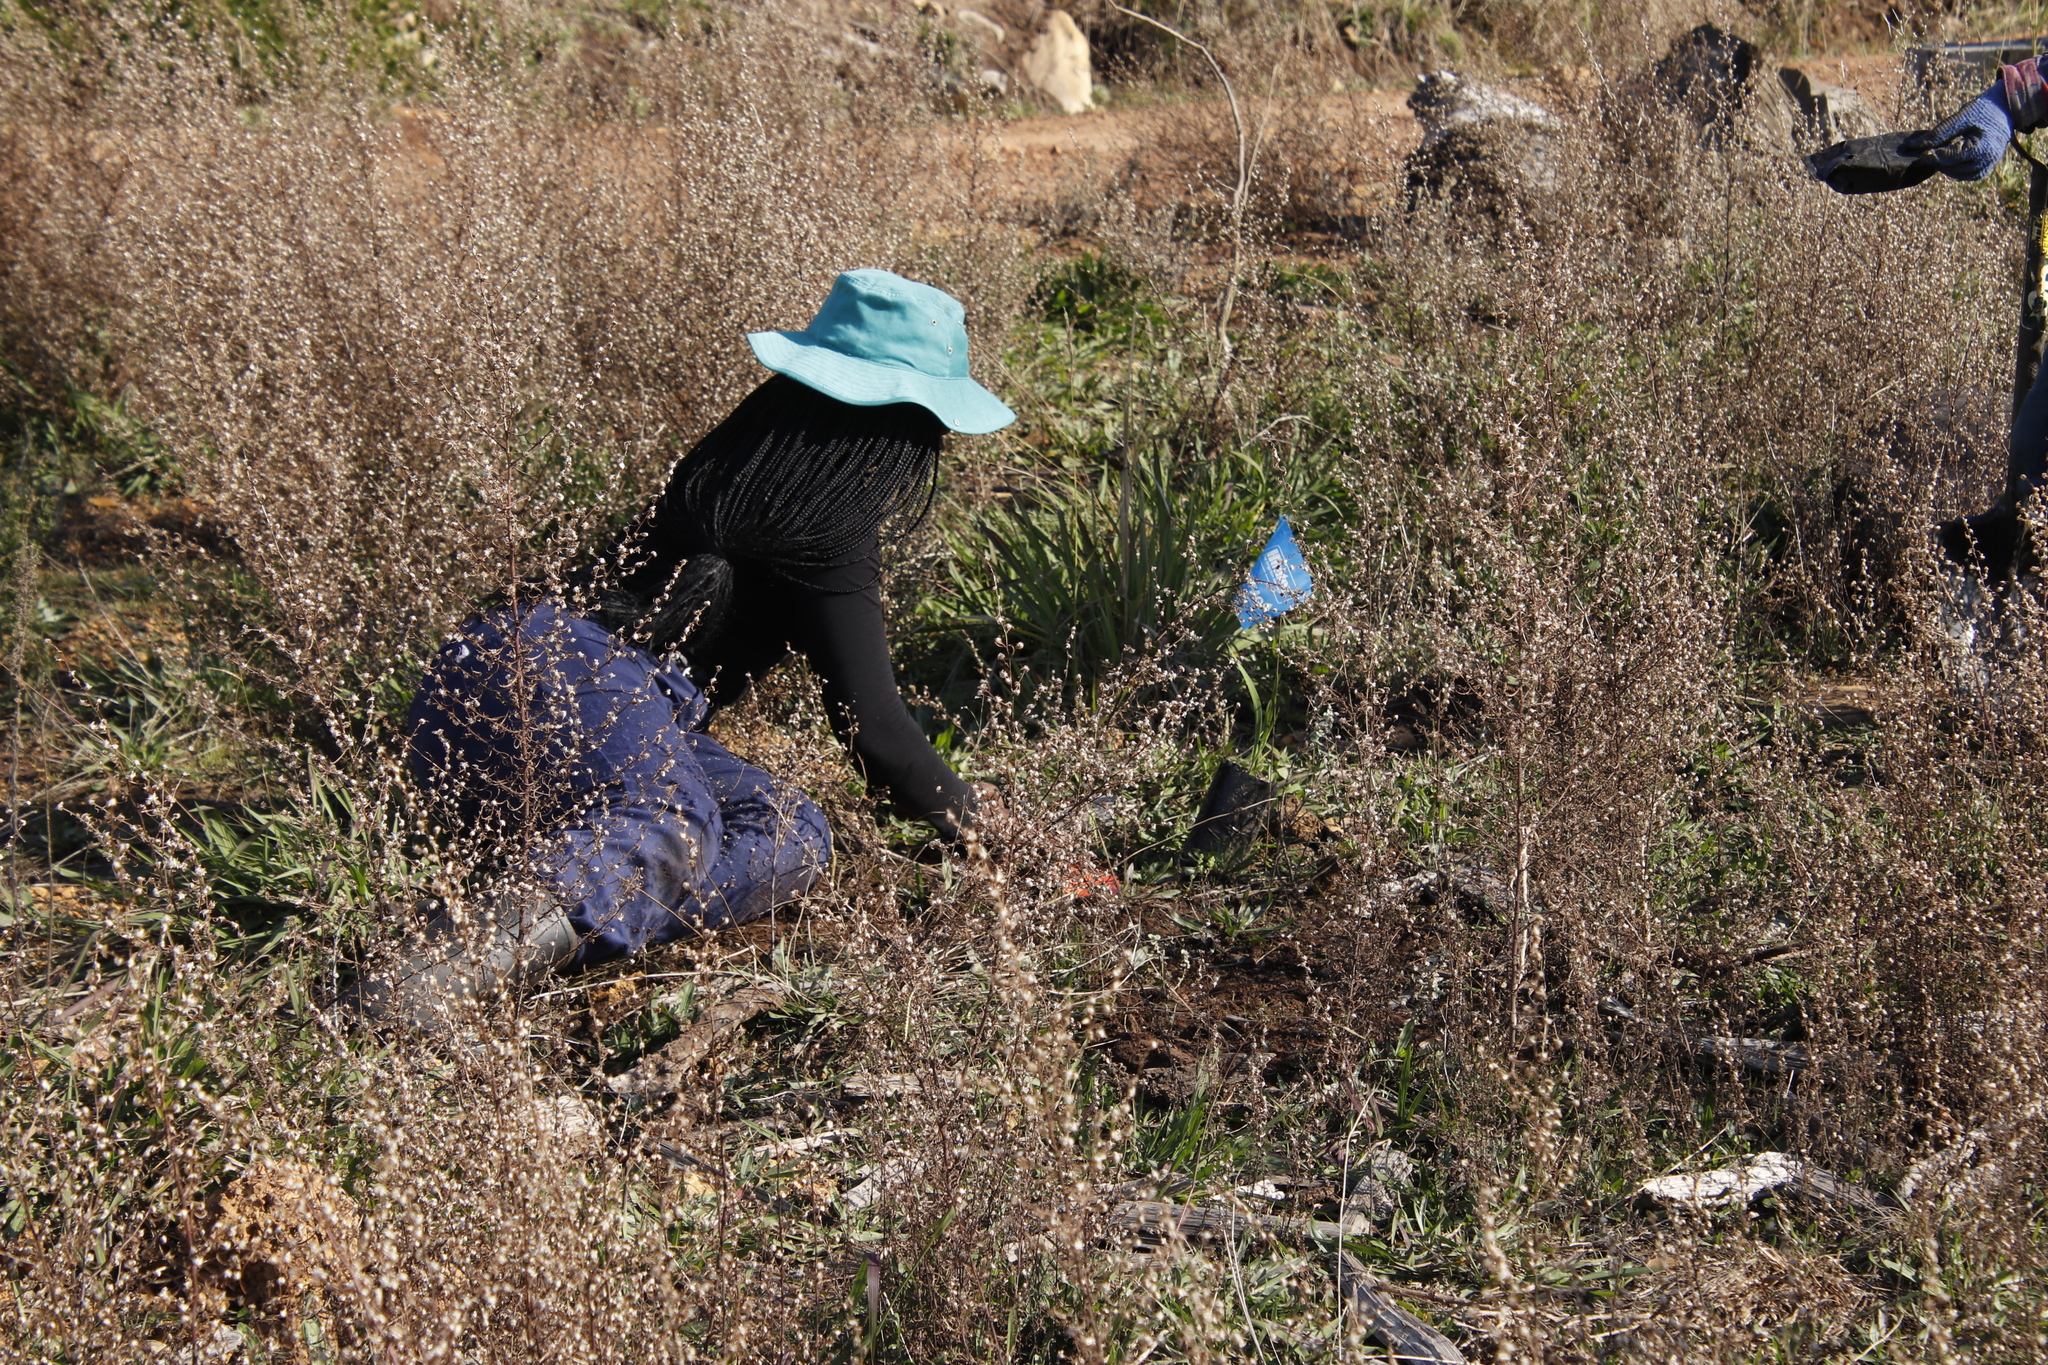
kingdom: Plantae
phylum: Tracheophyta
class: Magnoliopsida
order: Asterales
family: Asteraceae
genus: Dittrichia
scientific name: Dittrichia graveolens
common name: Stinking fleabane
